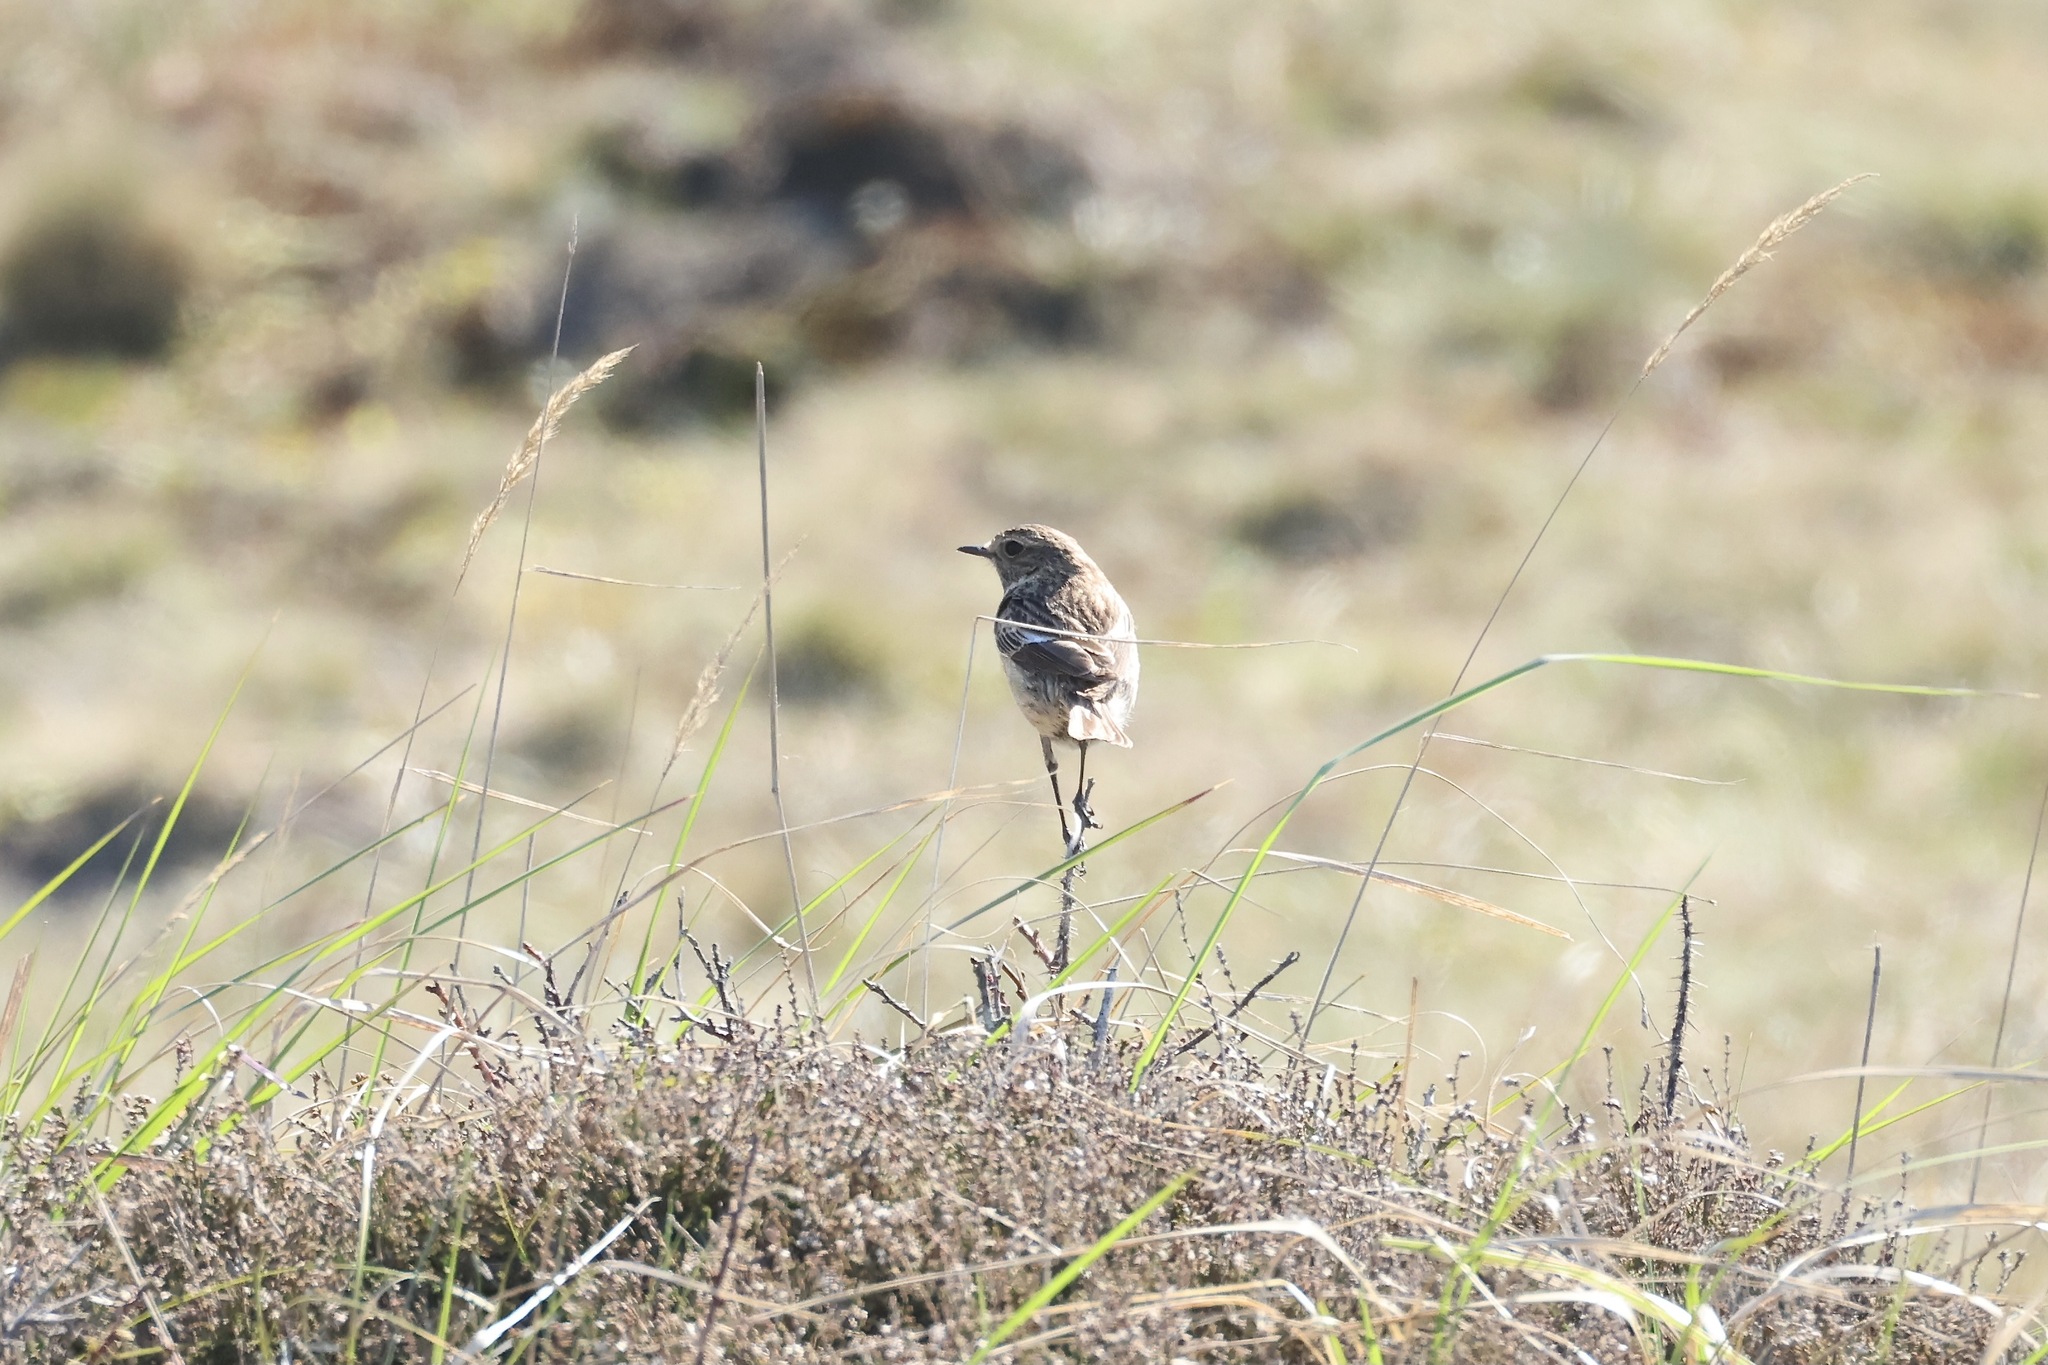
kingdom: Animalia
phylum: Chordata
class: Aves
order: Passeriformes
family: Muscicapidae
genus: Saxicola
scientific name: Saxicola rubicola
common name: European stonechat
